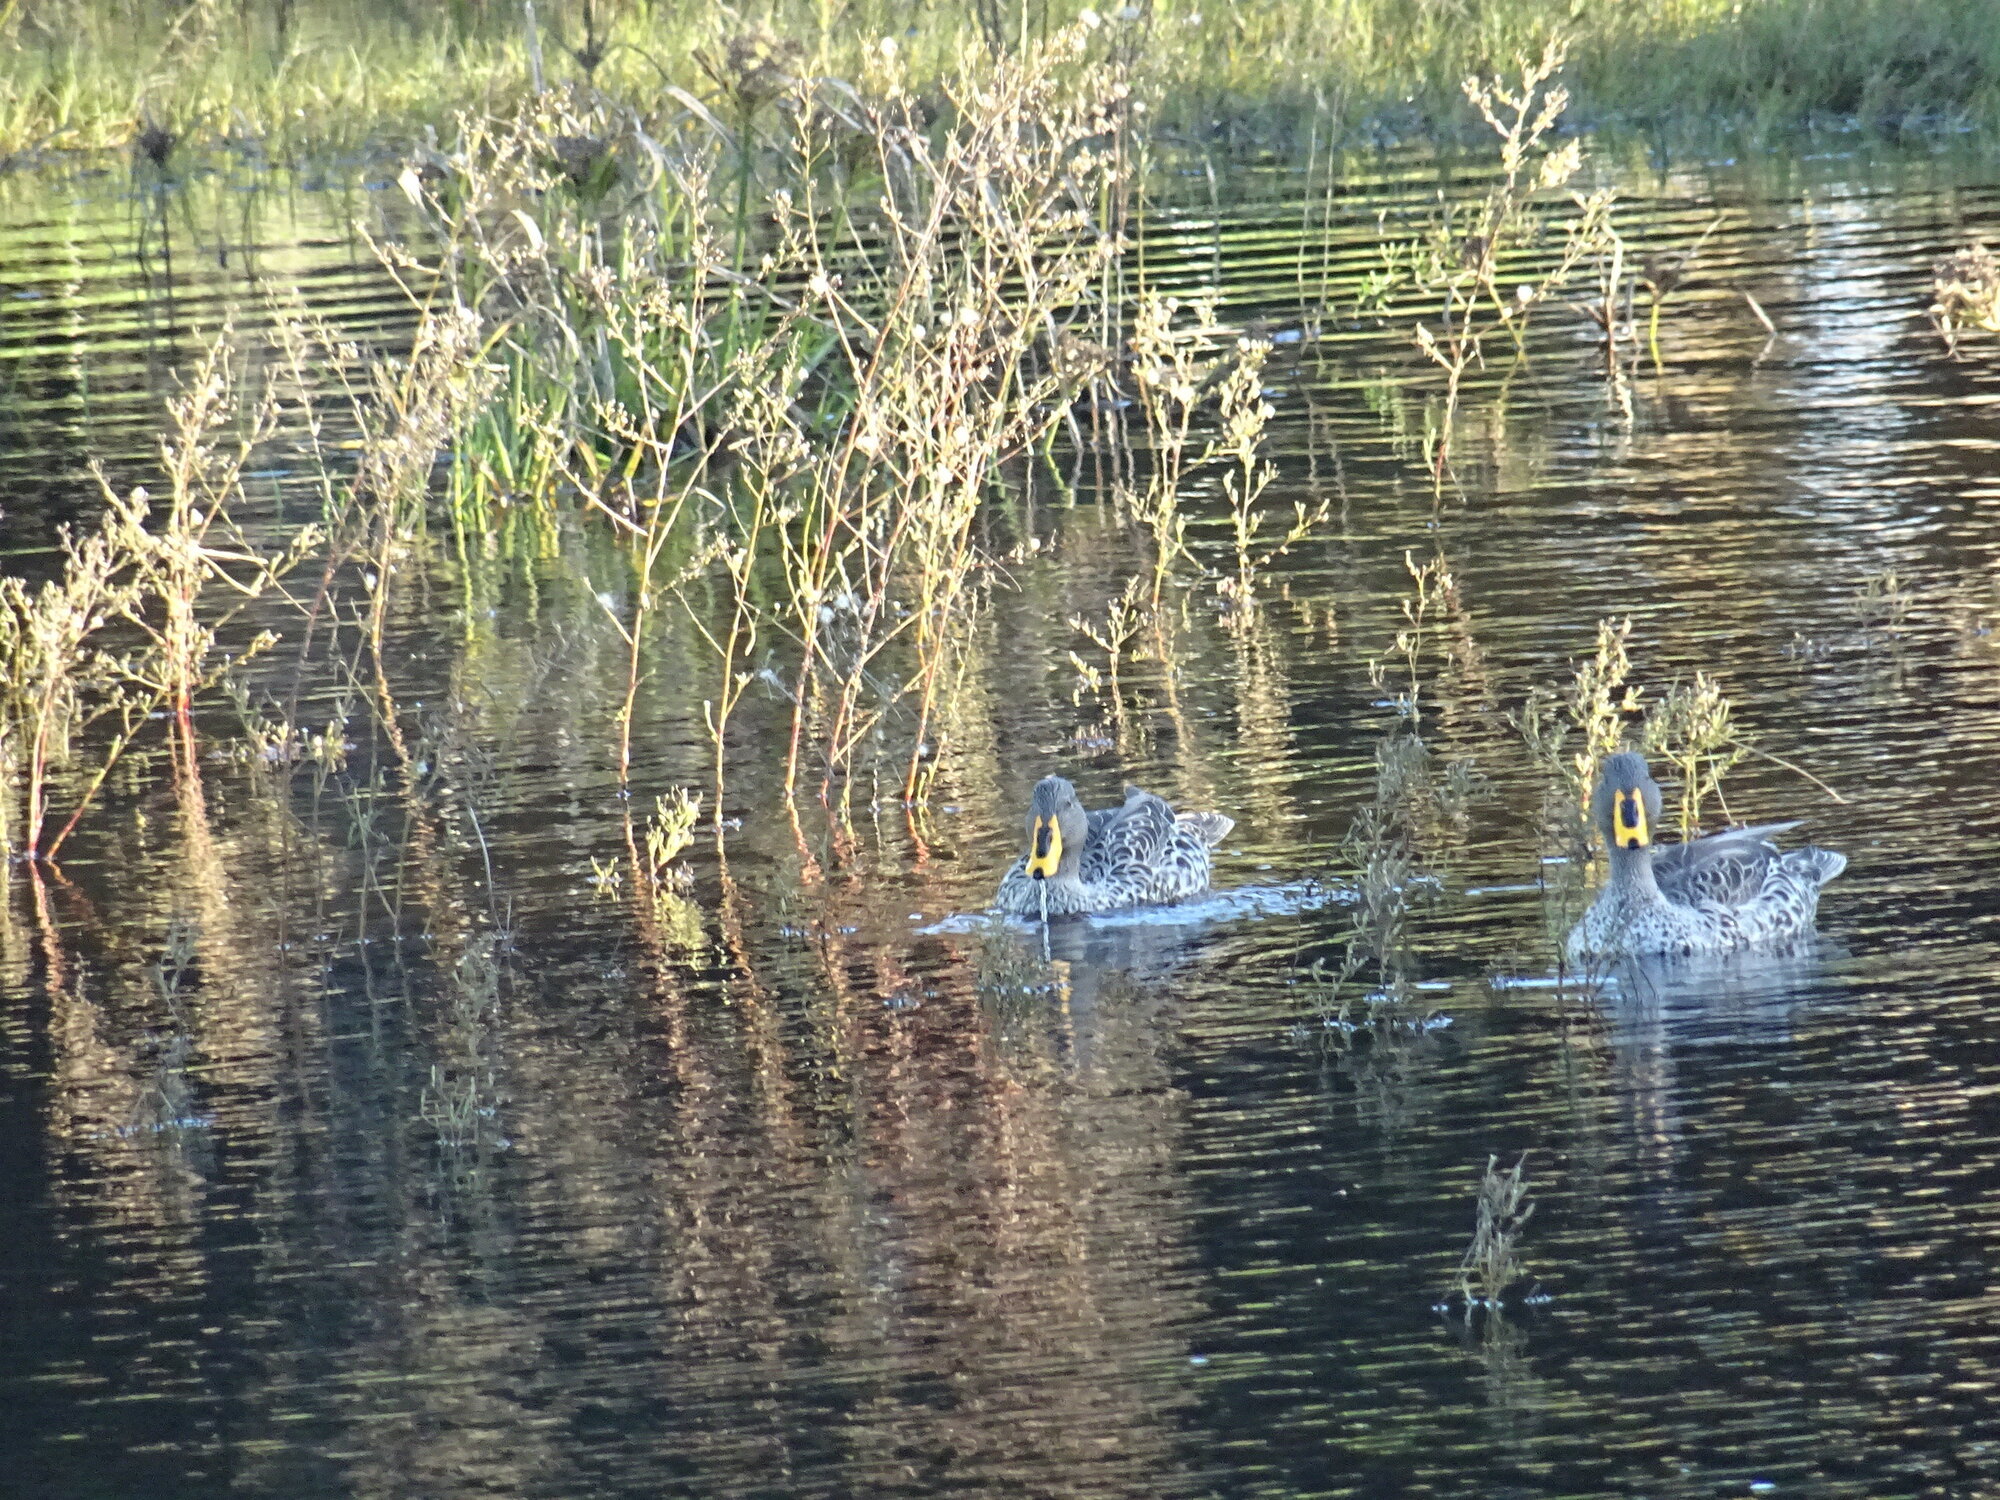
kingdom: Animalia
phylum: Chordata
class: Aves
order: Anseriformes
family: Anatidae
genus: Anas
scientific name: Anas undulata
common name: Yellow-billed duck
